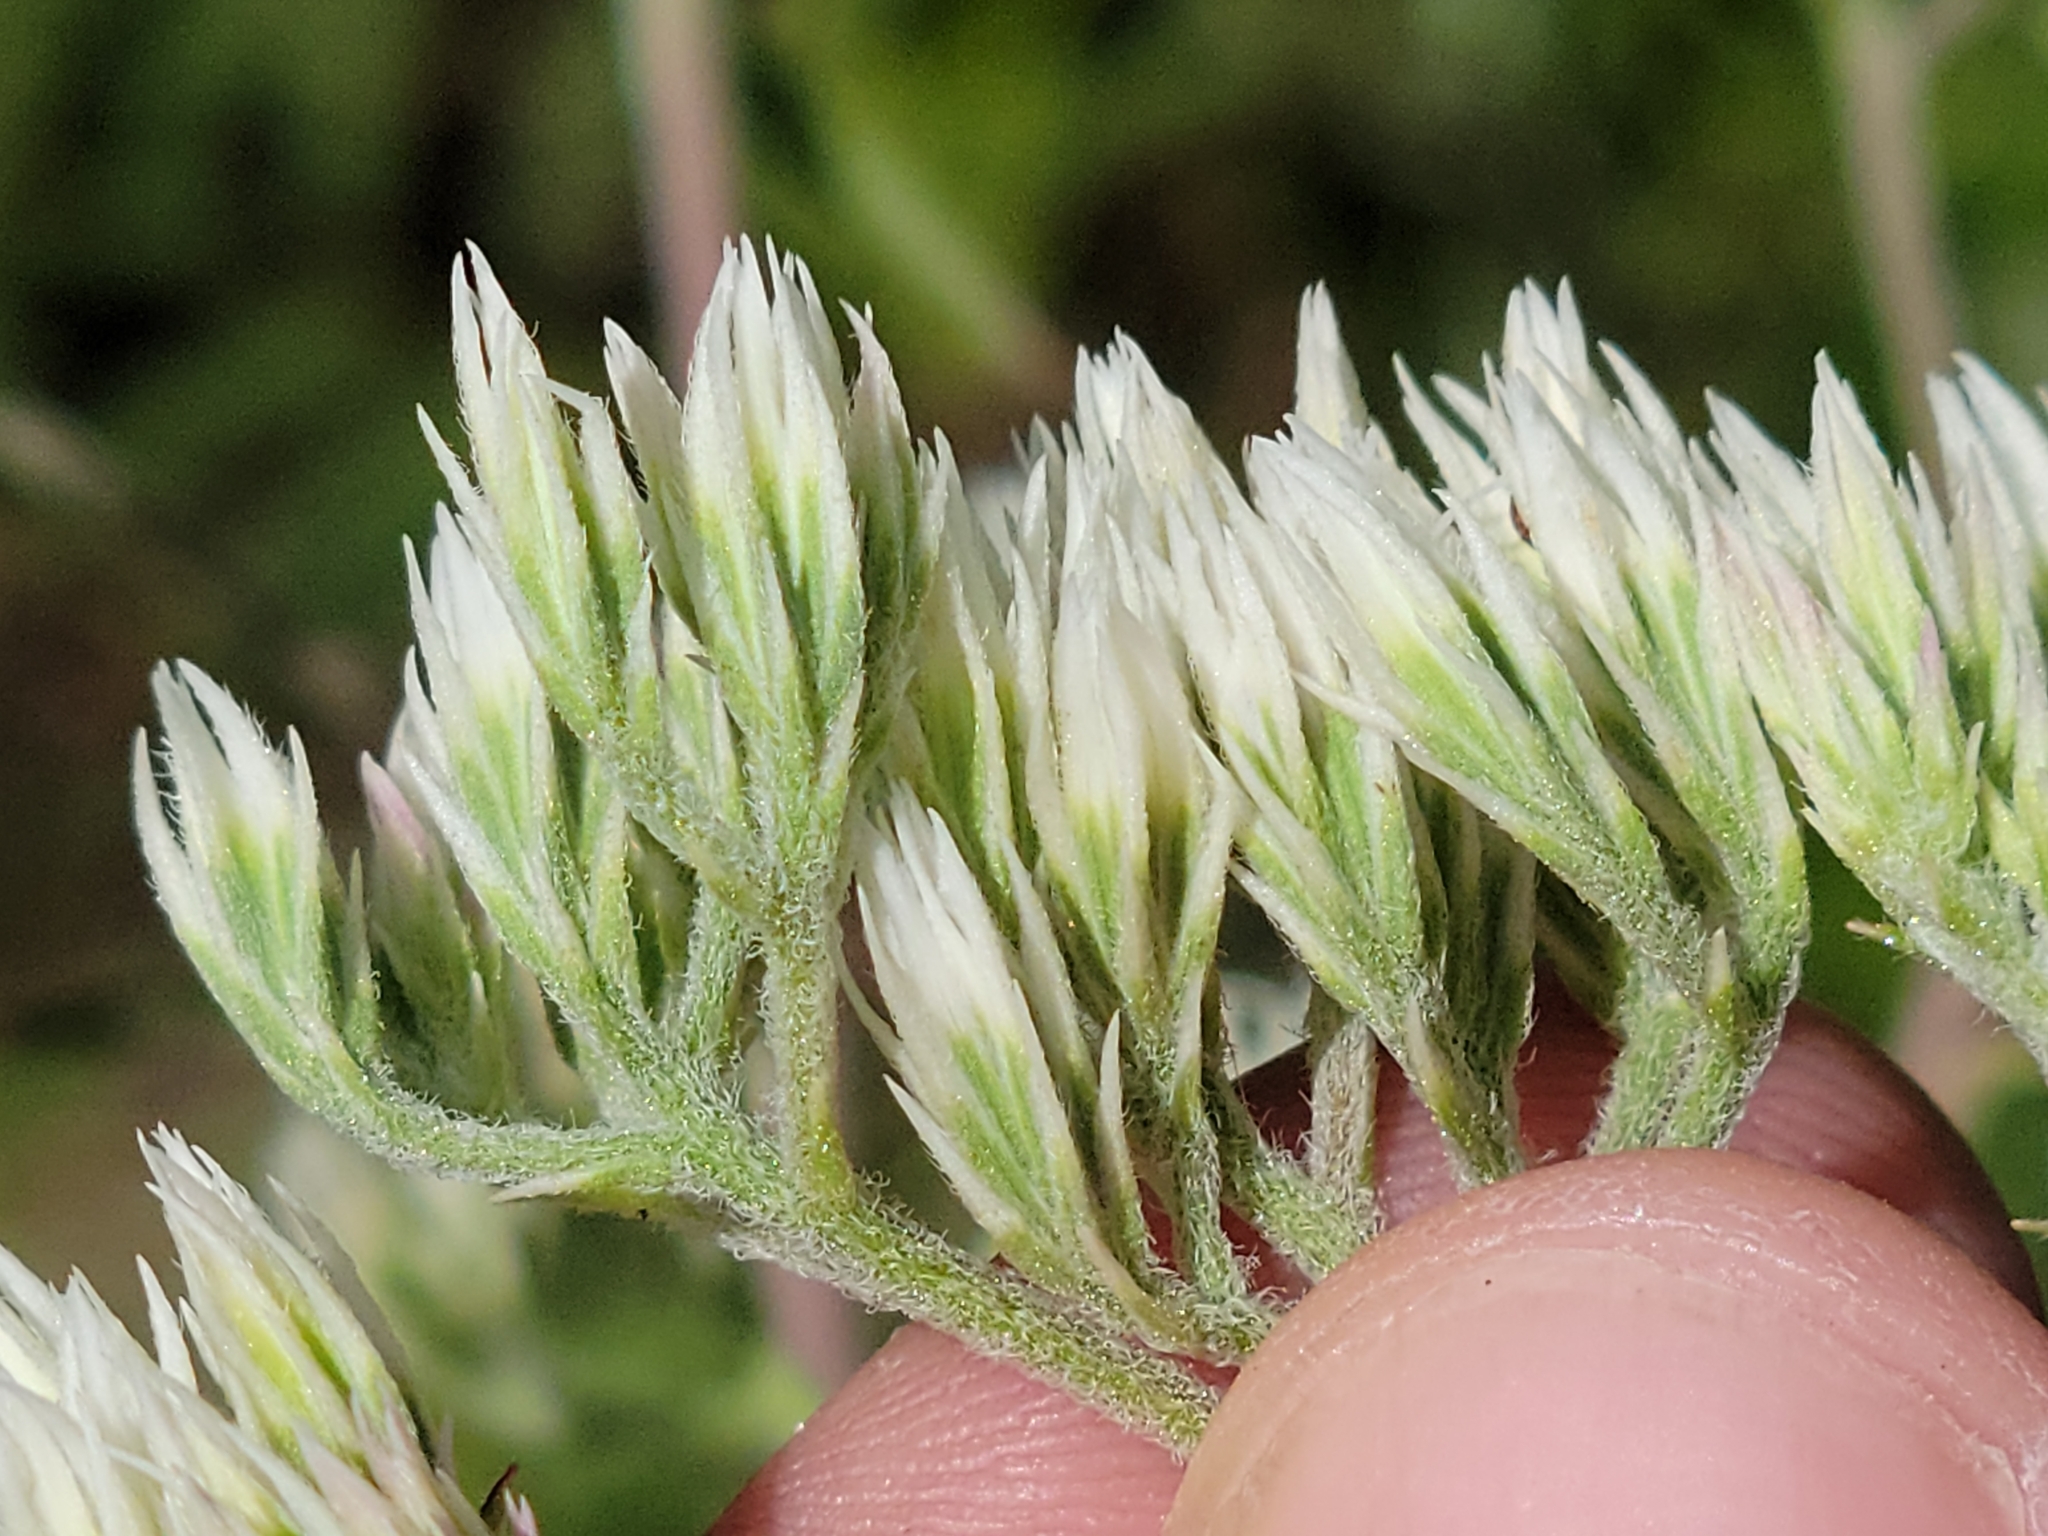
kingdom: Plantae
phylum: Tracheophyta
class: Magnoliopsida
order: Asterales
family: Asteraceae
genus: Eupatorium
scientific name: Eupatorium album
